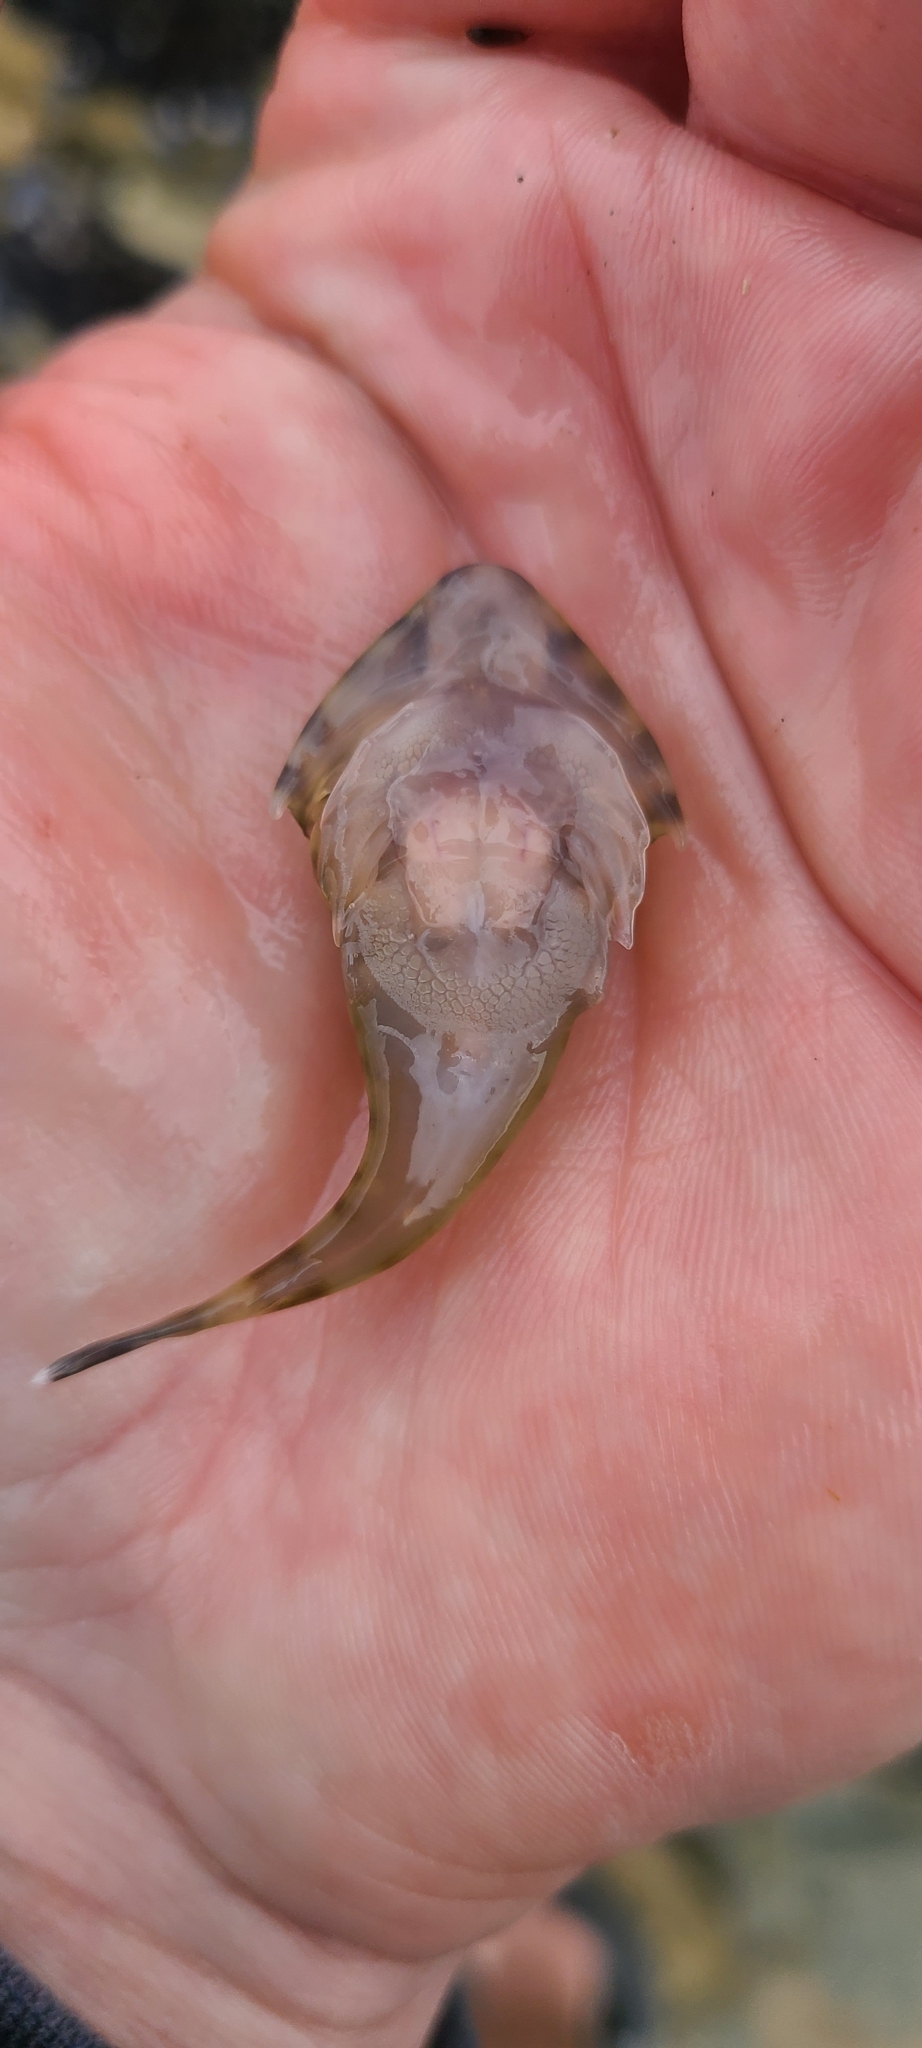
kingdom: Animalia
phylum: Chordata
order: Gobiesociformes
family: Gobiesocidae
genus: Diplocrepis
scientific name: Diplocrepis puniceus
